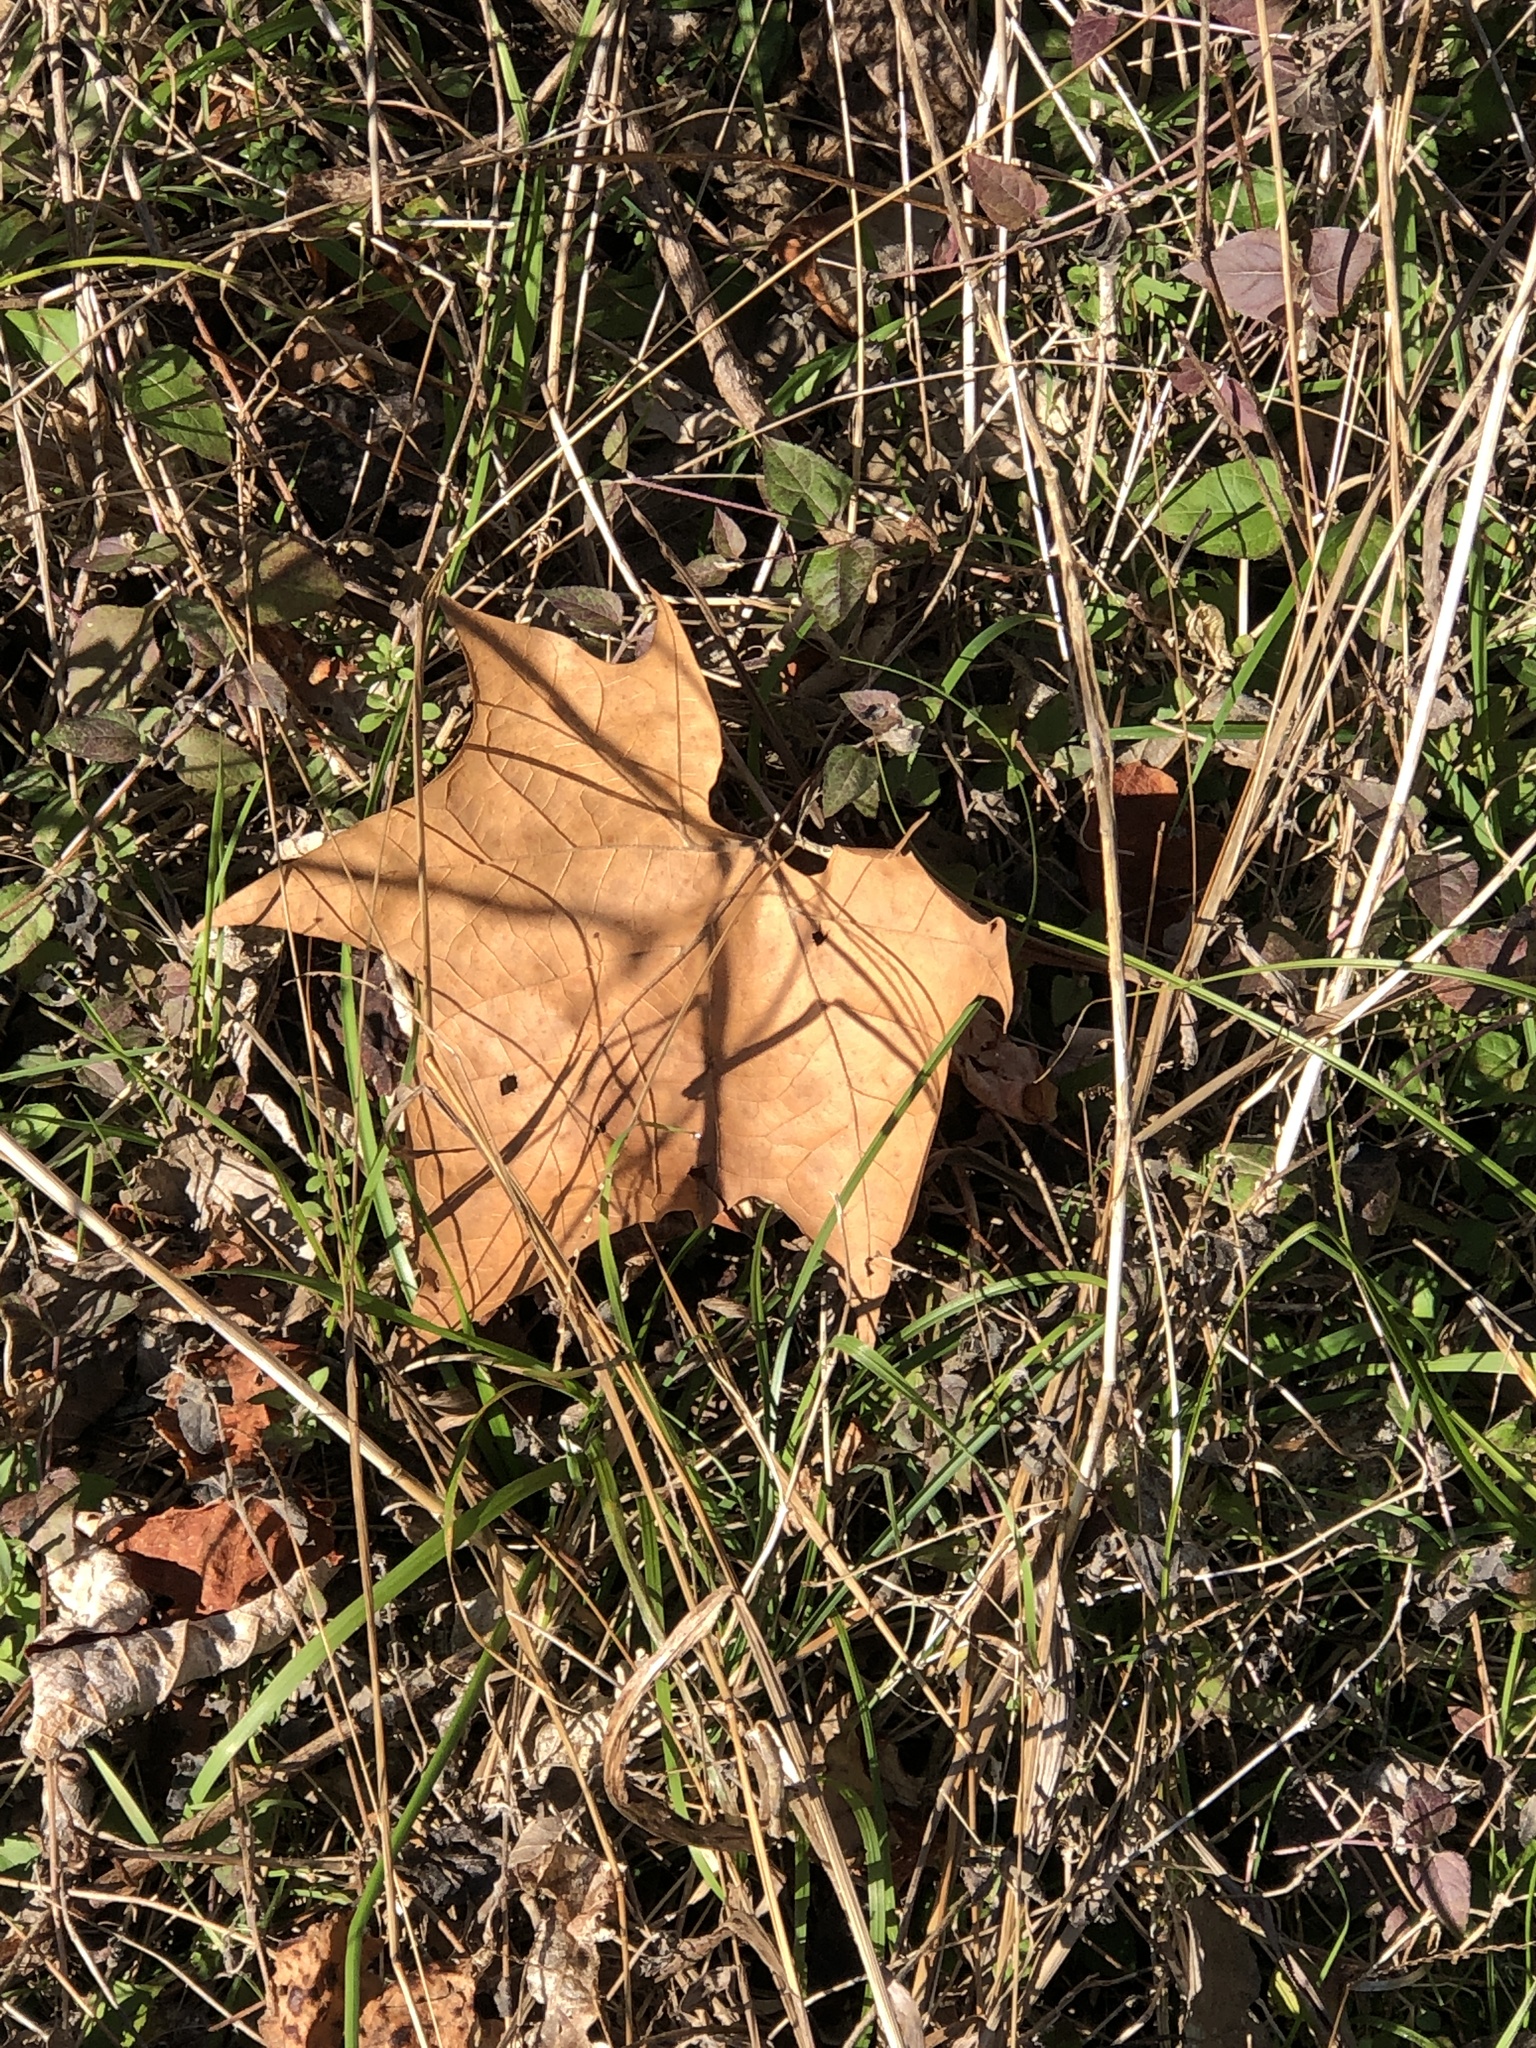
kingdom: Plantae
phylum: Tracheophyta
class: Magnoliopsida
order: Proteales
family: Platanaceae
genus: Platanus
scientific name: Platanus occidentalis
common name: American sycamore
